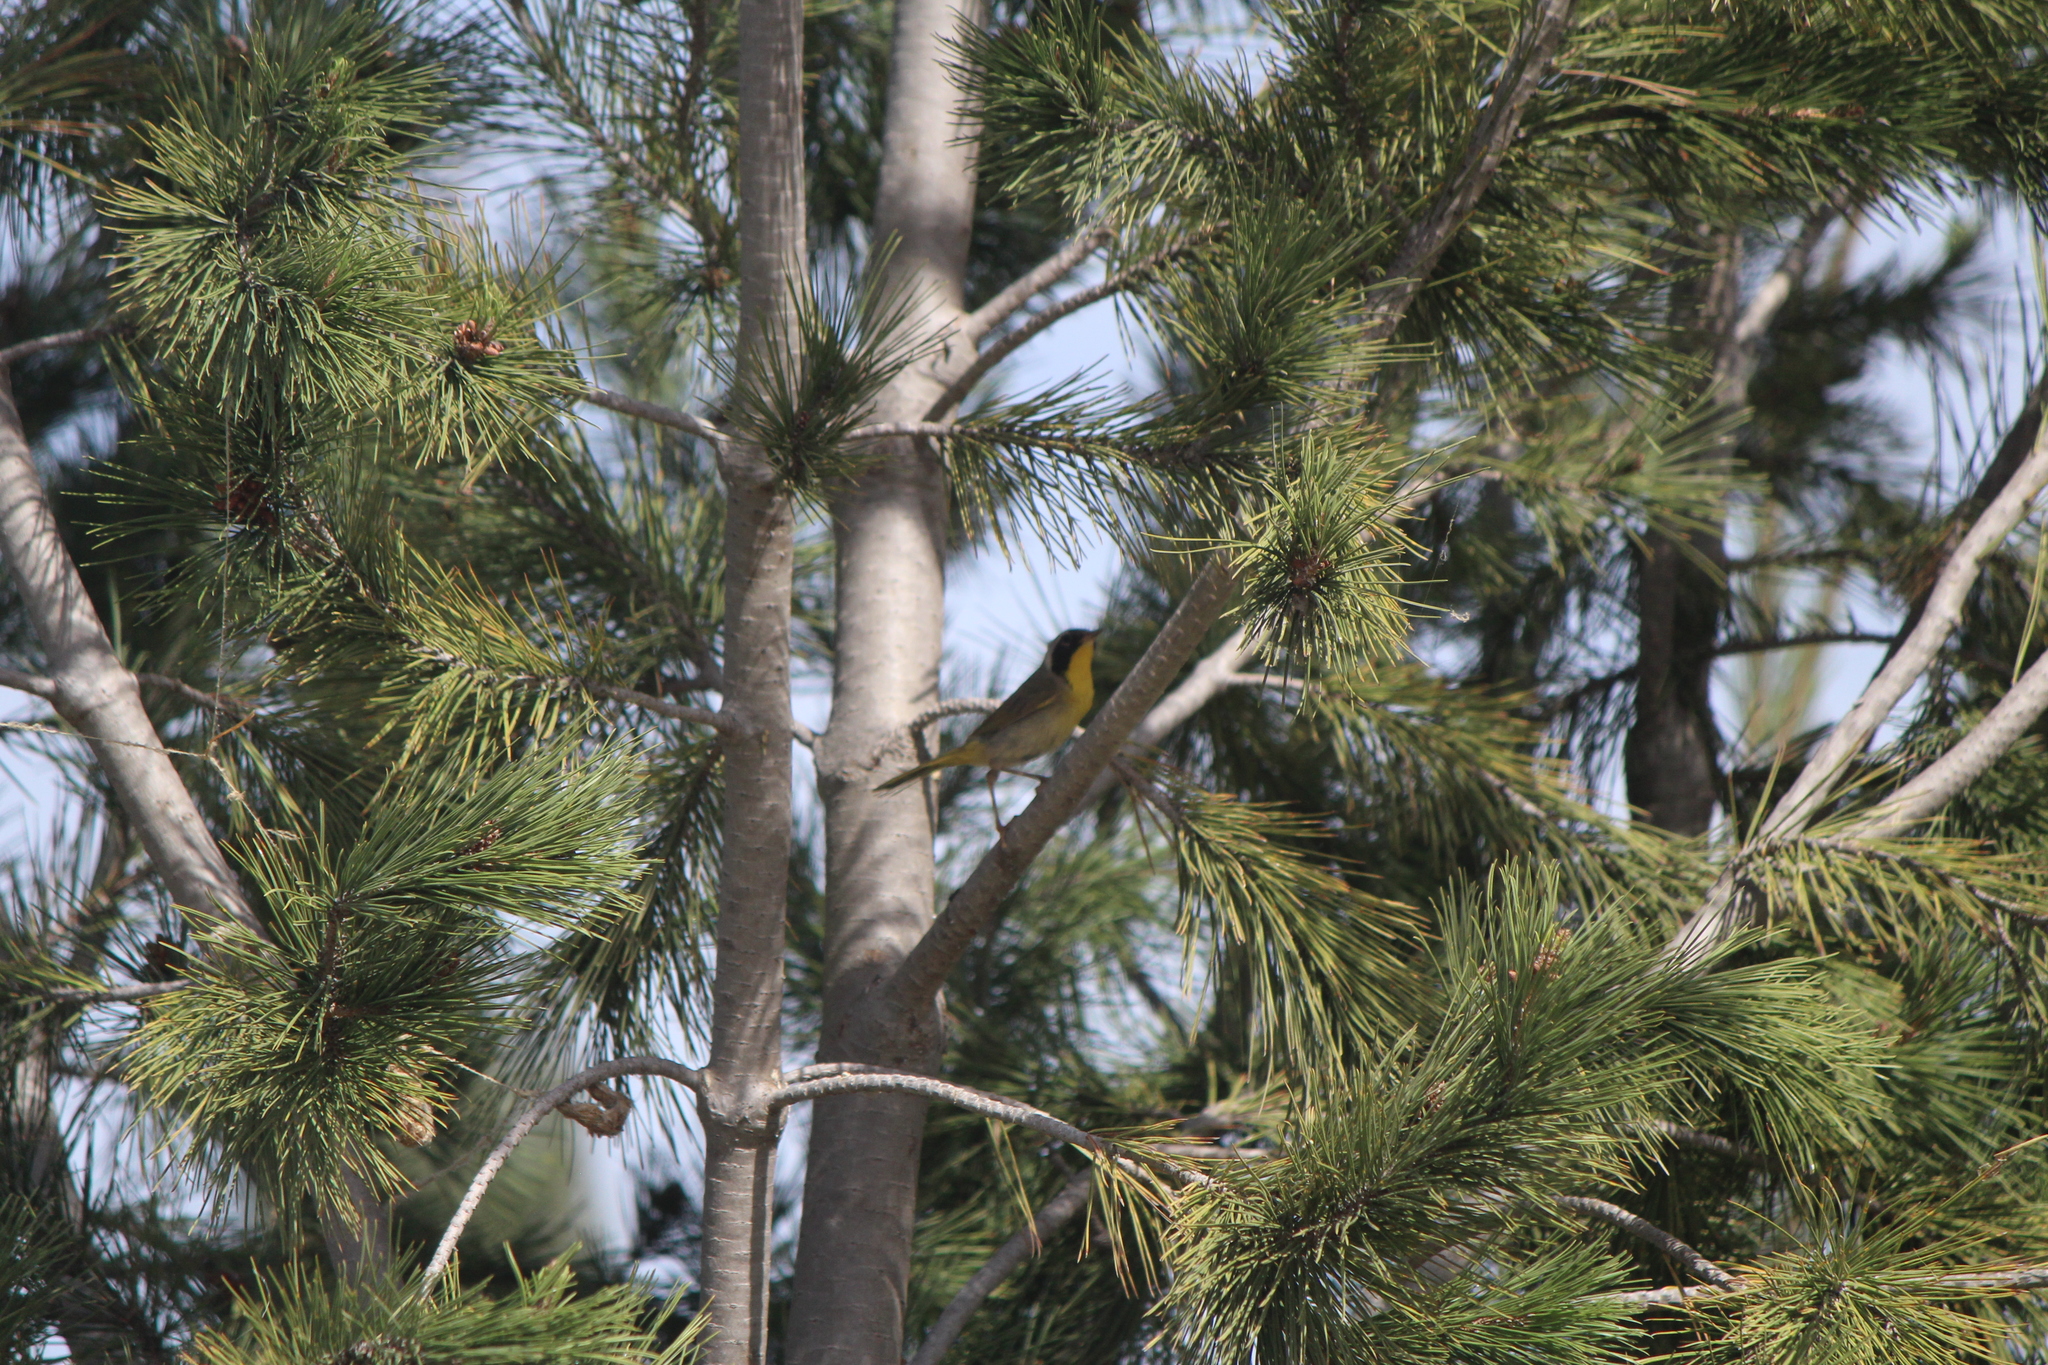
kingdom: Animalia
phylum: Chordata
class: Aves
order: Passeriformes
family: Parulidae
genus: Geothlypis
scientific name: Geothlypis trichas
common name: Common yellowthroat
